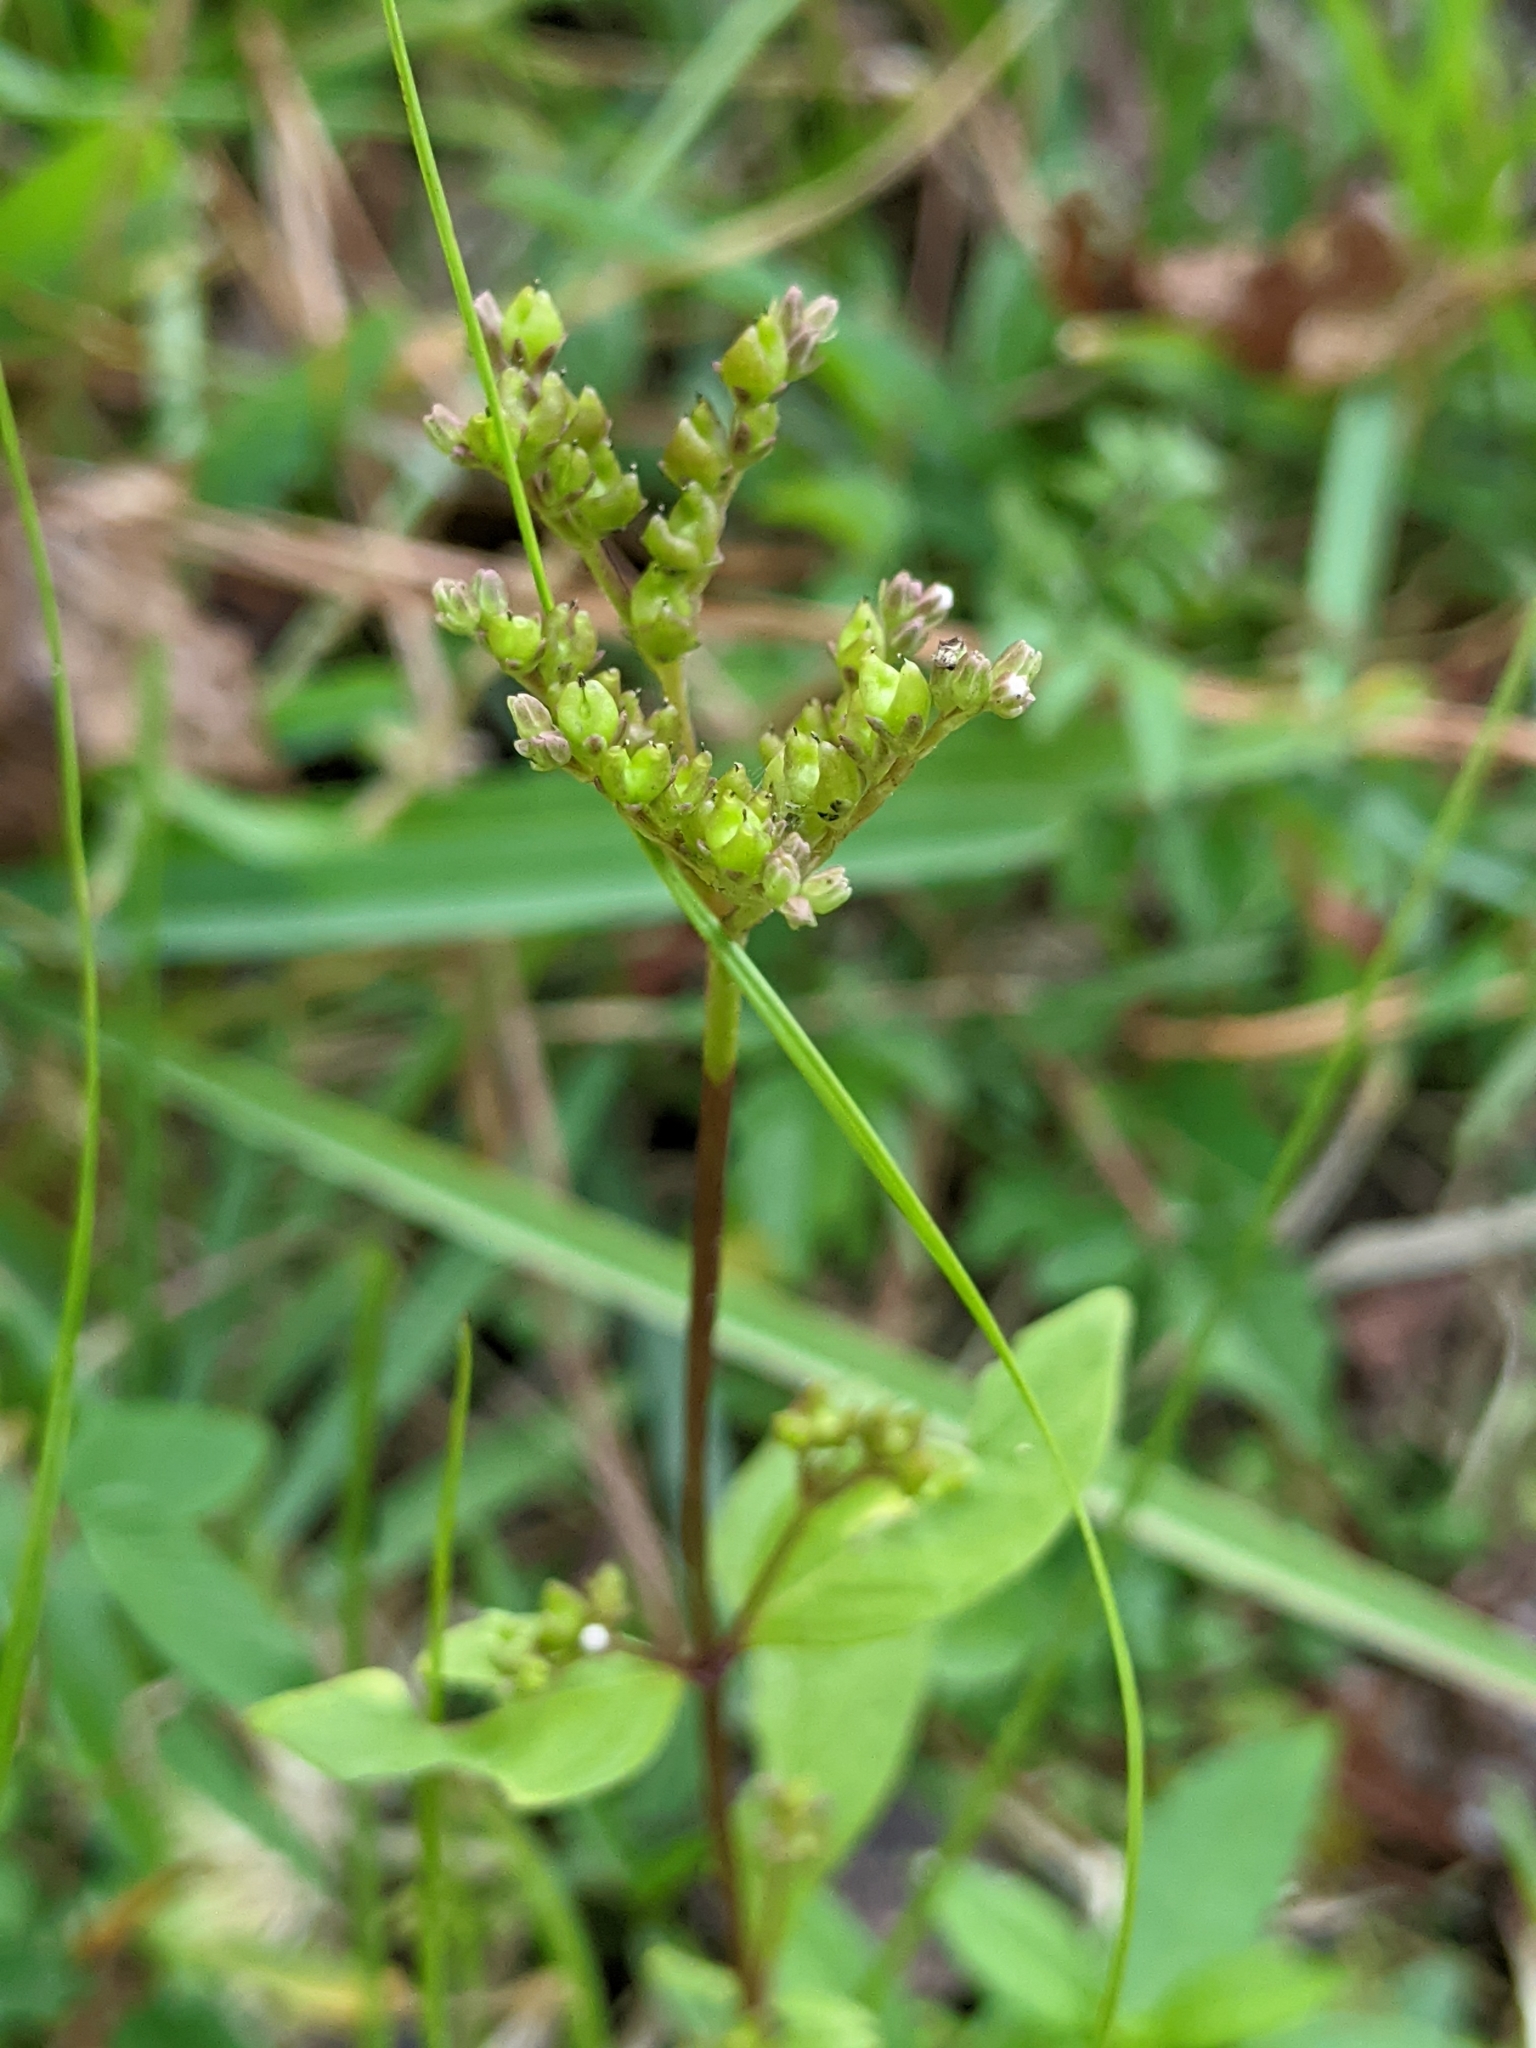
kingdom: Plantae
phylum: Tracheophyta
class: Magnoliopsida
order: Gentianales
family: Loganiaceae
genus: Mitreola
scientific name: Mitreola petiolata
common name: Lax hornpod
